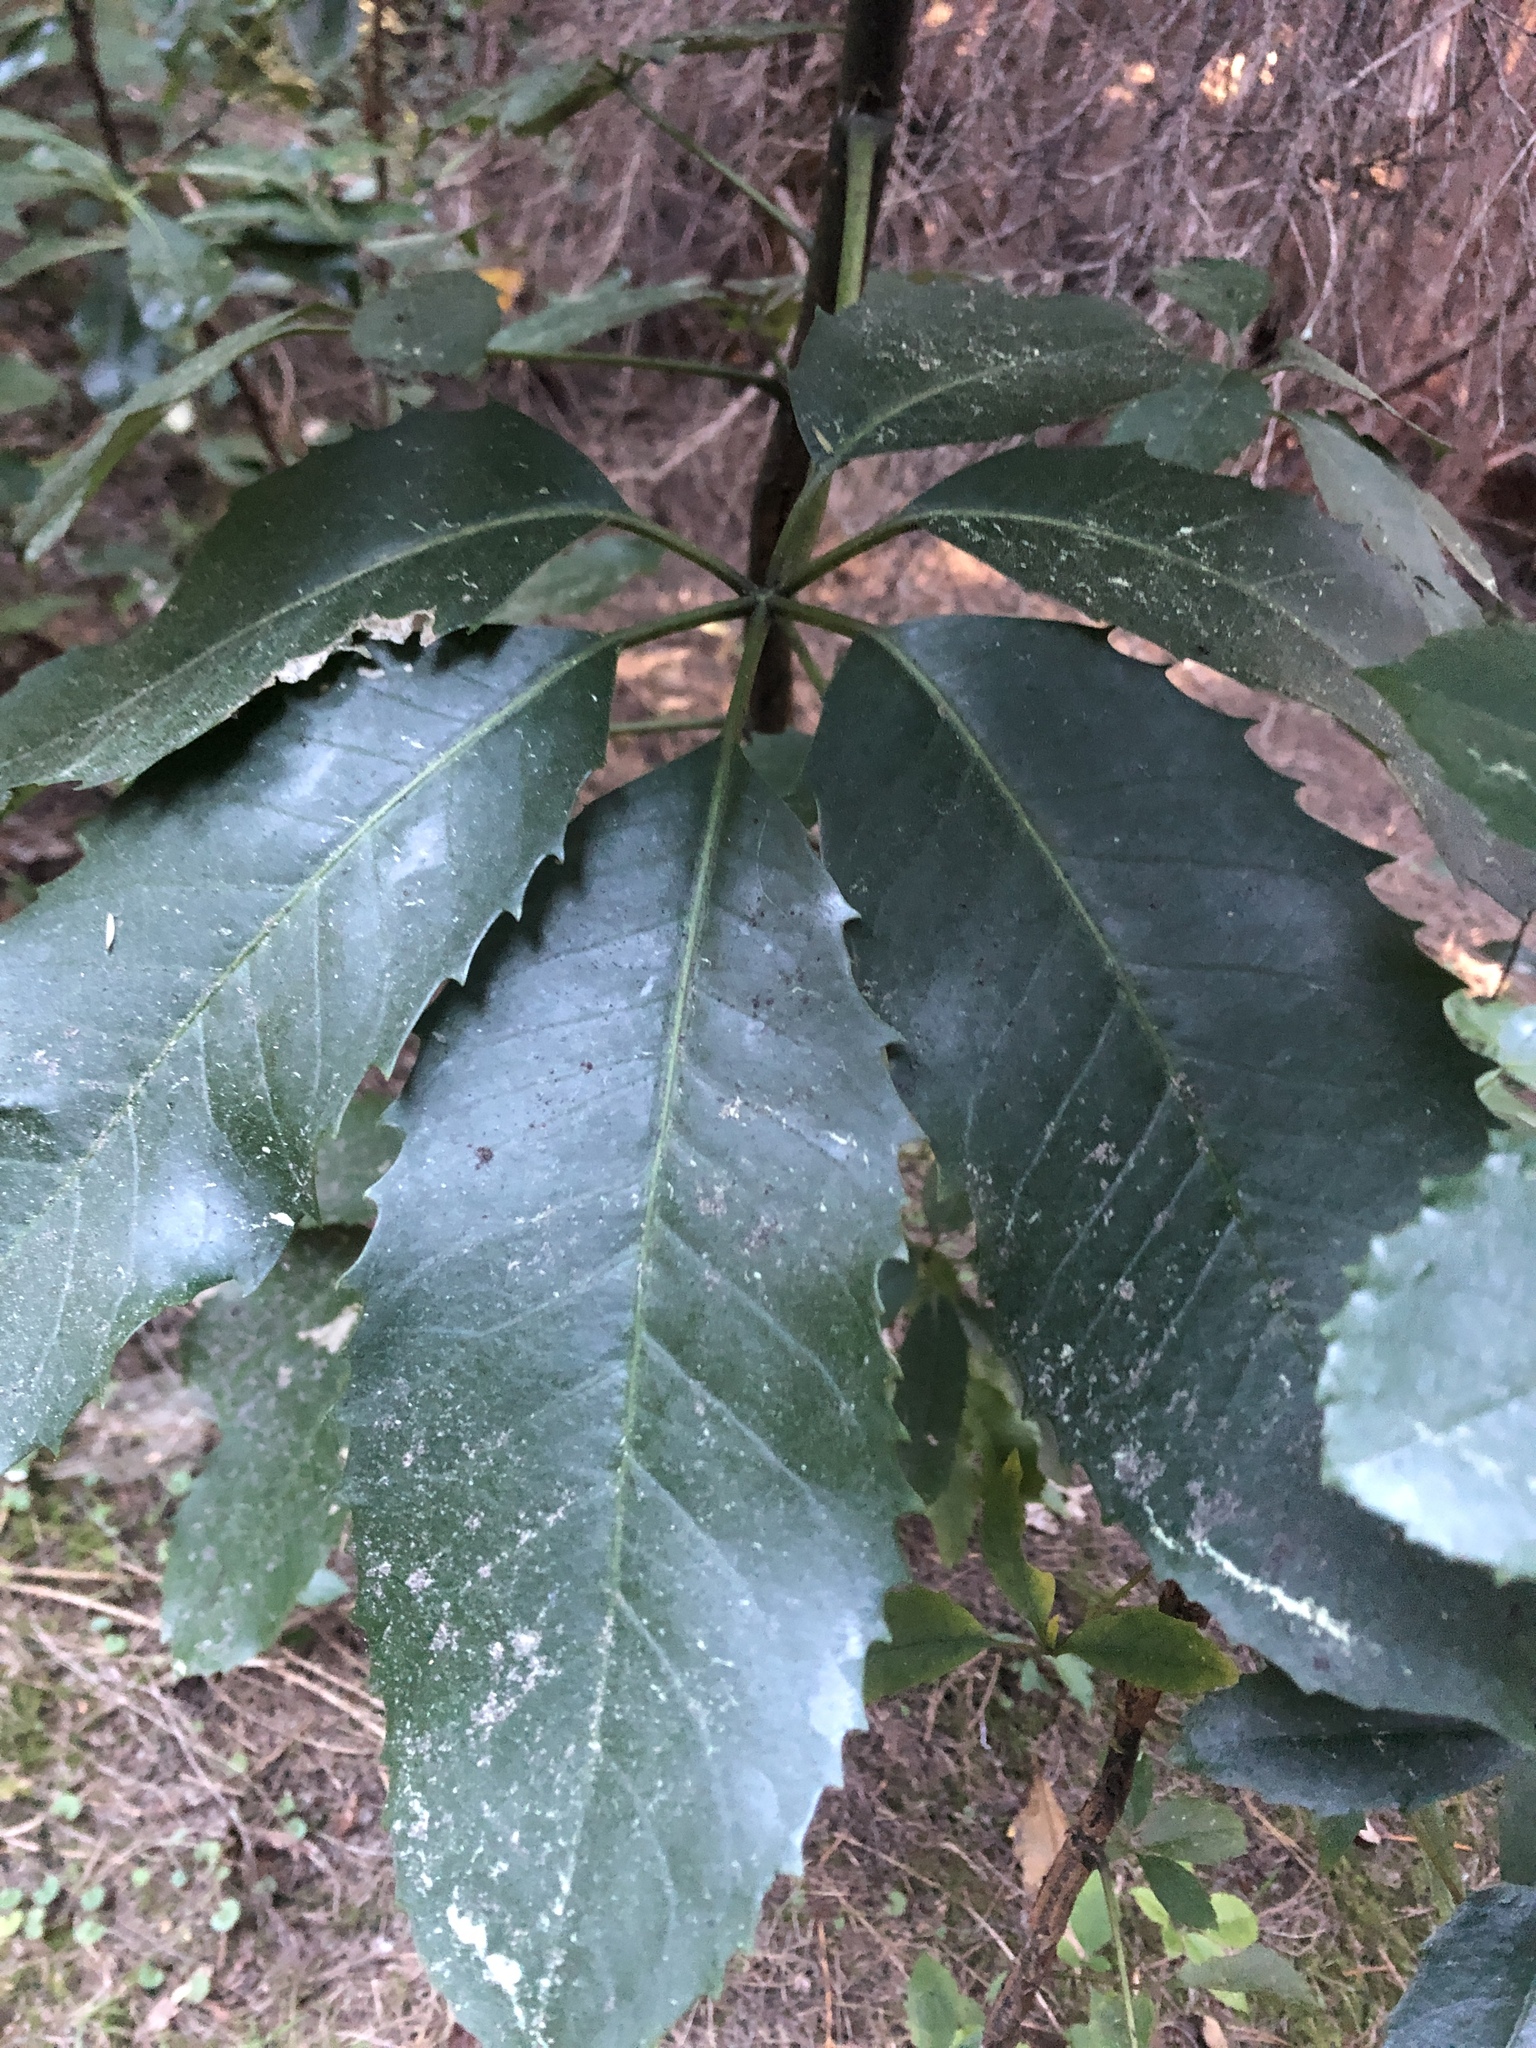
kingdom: Plantae
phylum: Tracheophyta
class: Magnoliopsida
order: Apiales
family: Araliaceae
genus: Neopanax
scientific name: Neopanax arboreus
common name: Five-fingers
